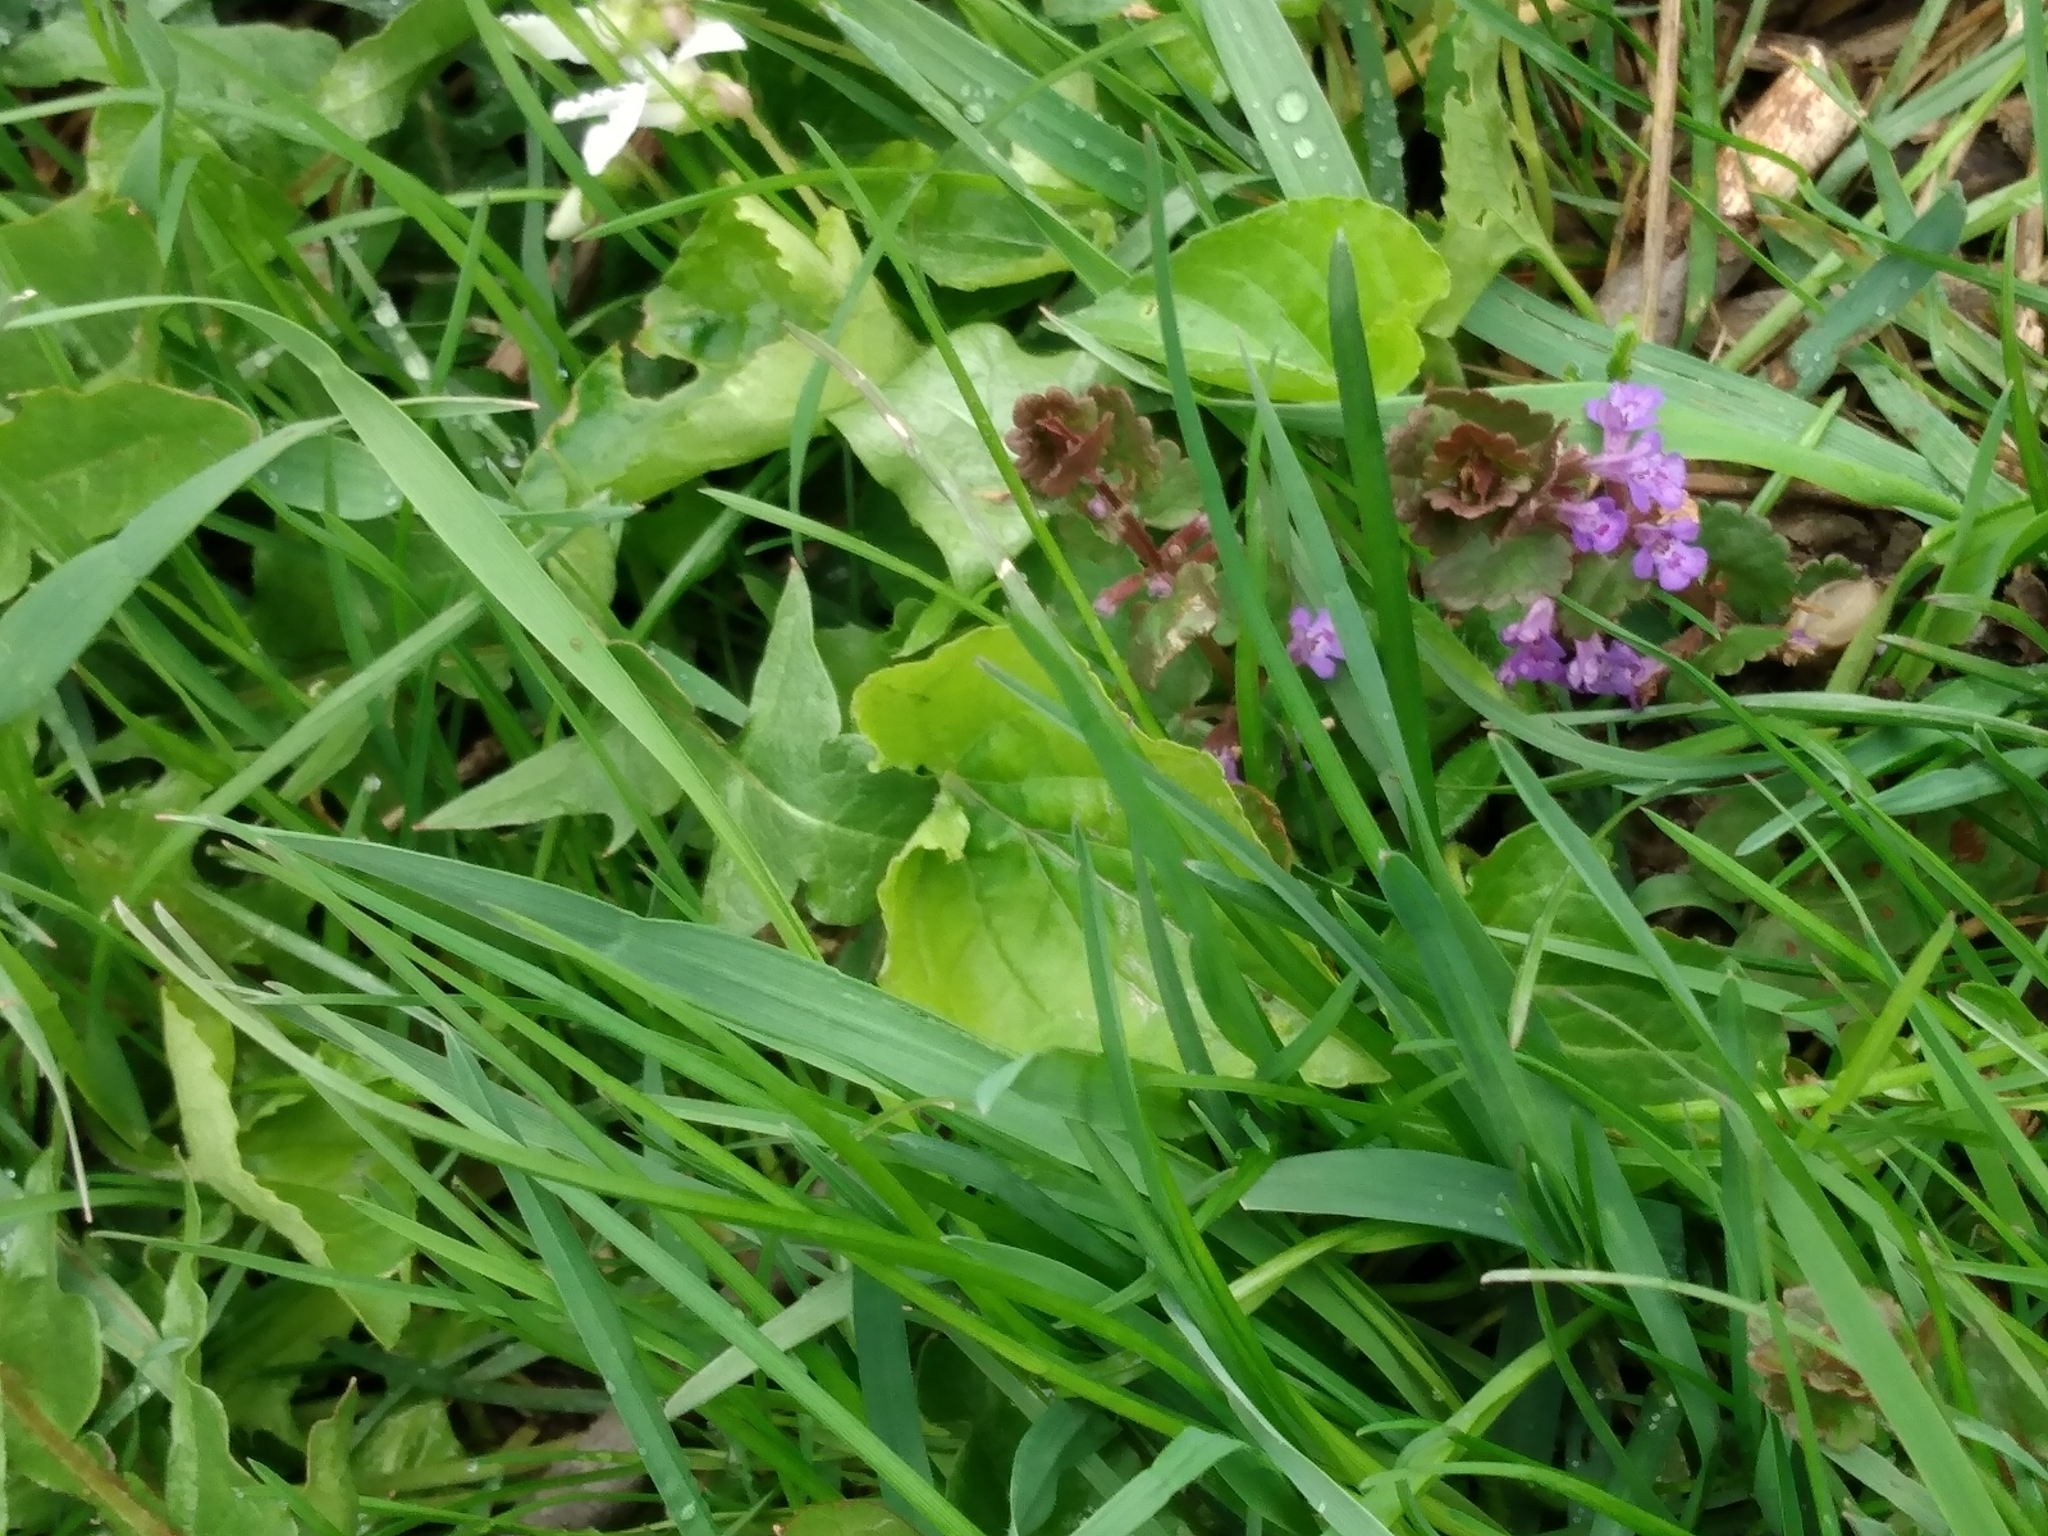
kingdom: Plantae
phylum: Tracheophyta
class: Magnoliopsida
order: Lamiales
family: Lamiaceae
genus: Glechoma
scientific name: Glechoma hederacea
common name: Ground ivy
